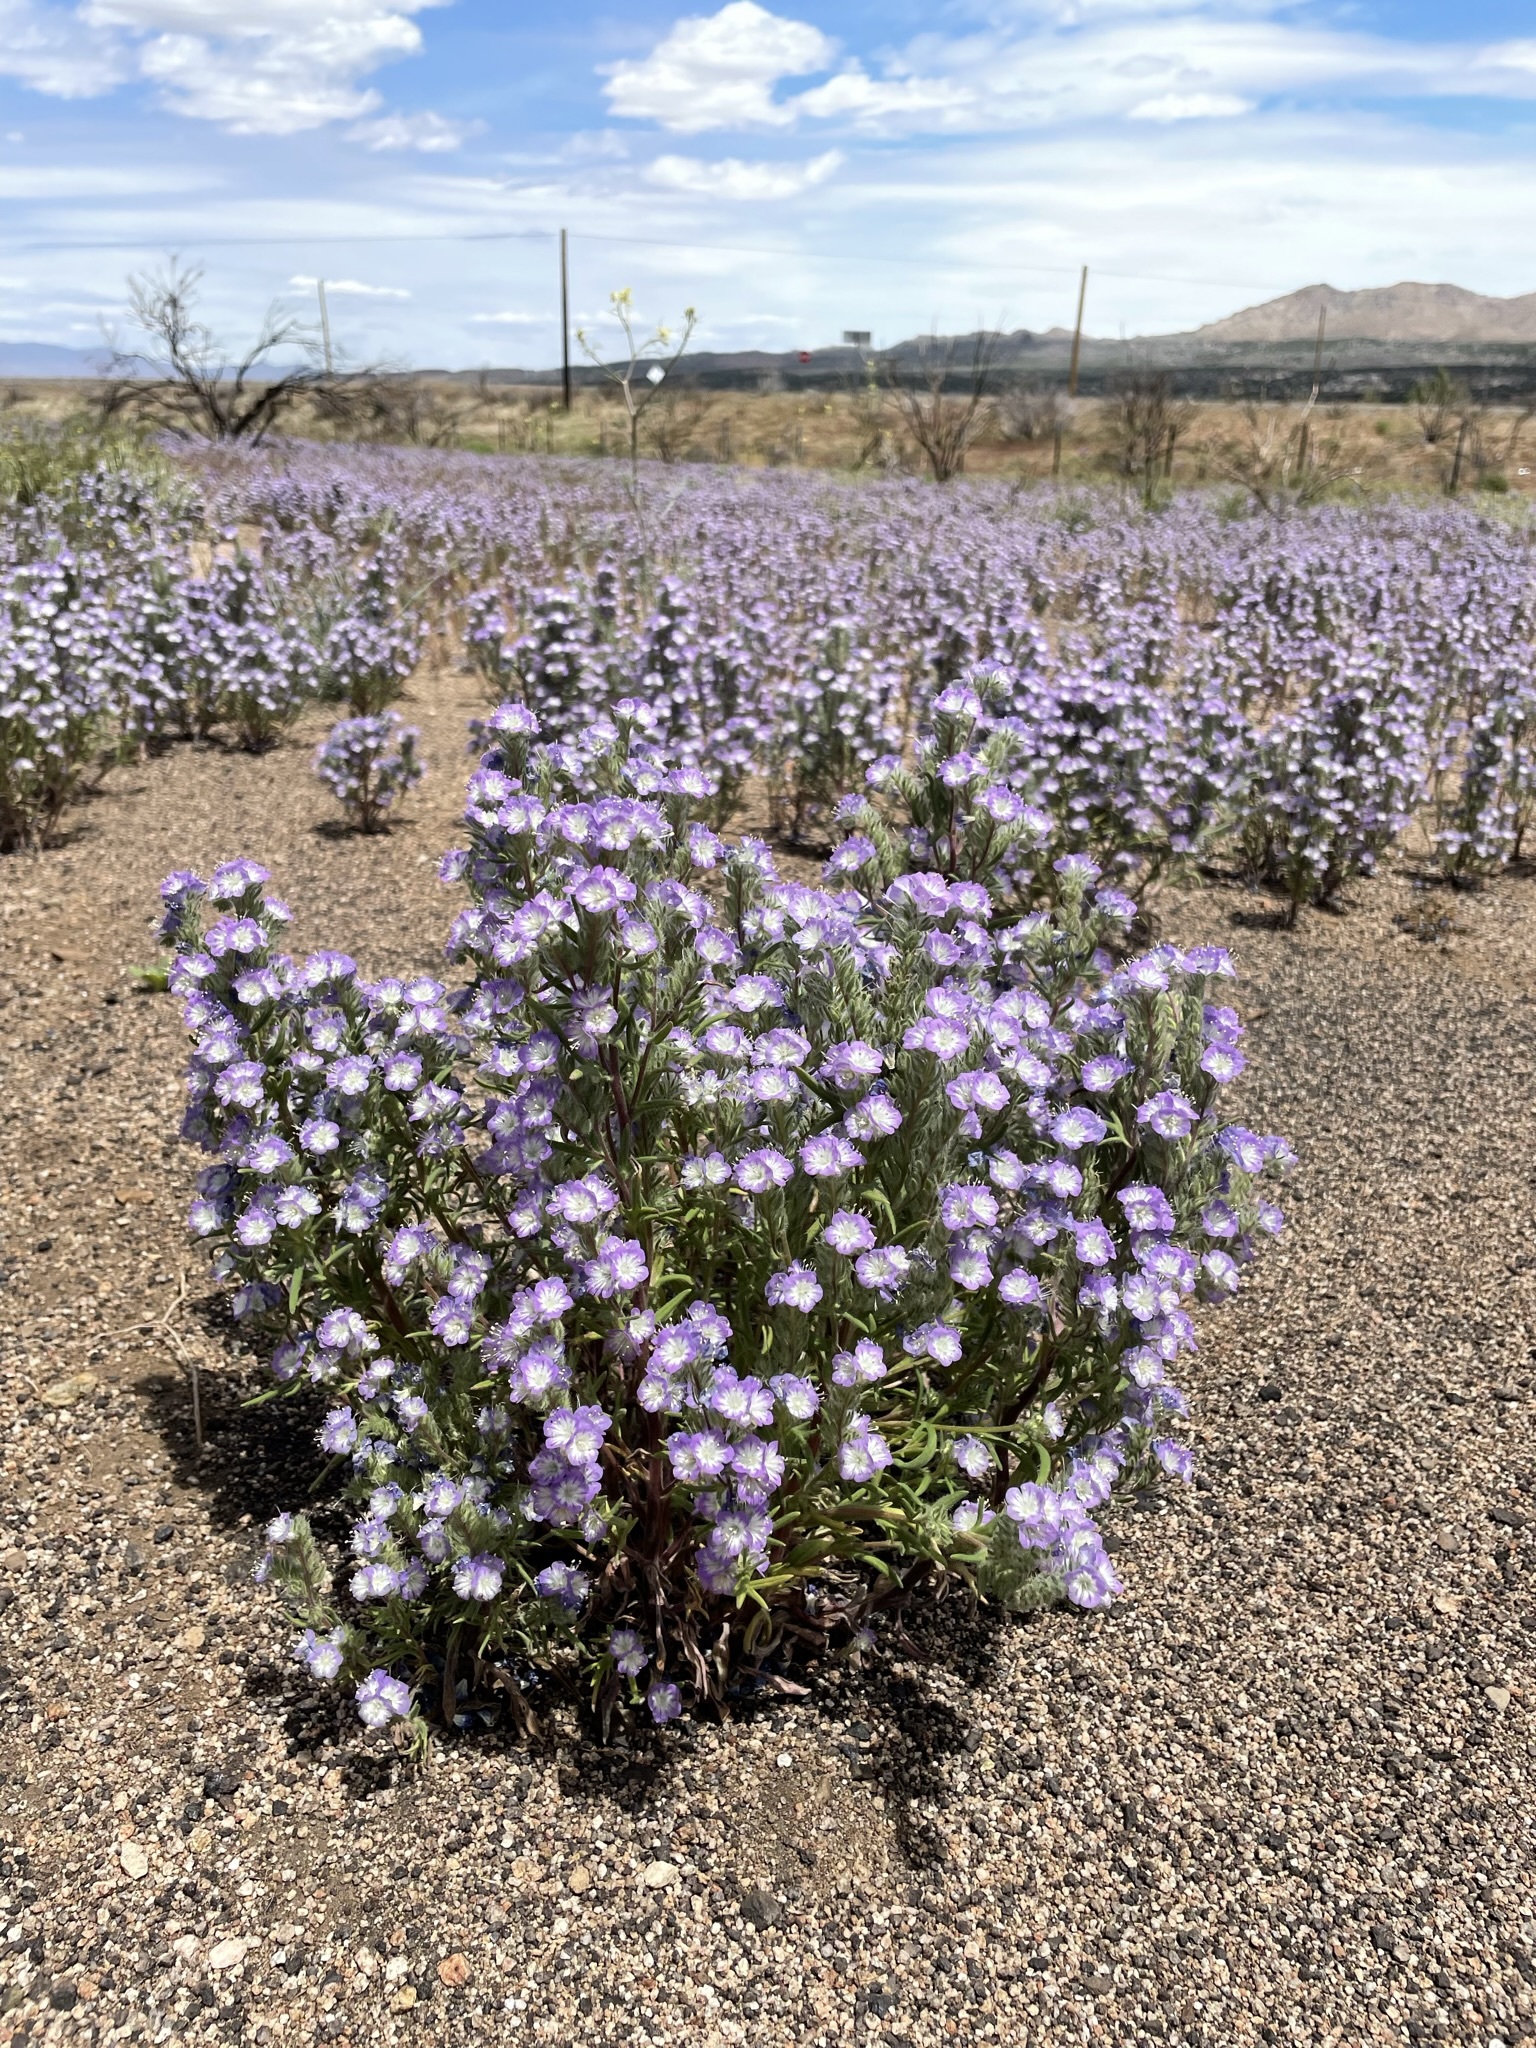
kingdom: Plantae
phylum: Tracheophyta
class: Magnoliopsida
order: Boraginales
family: Hydrophyllaceae
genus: Phacelia
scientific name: Phacelia linearis
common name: Linear-leaved phacelia
